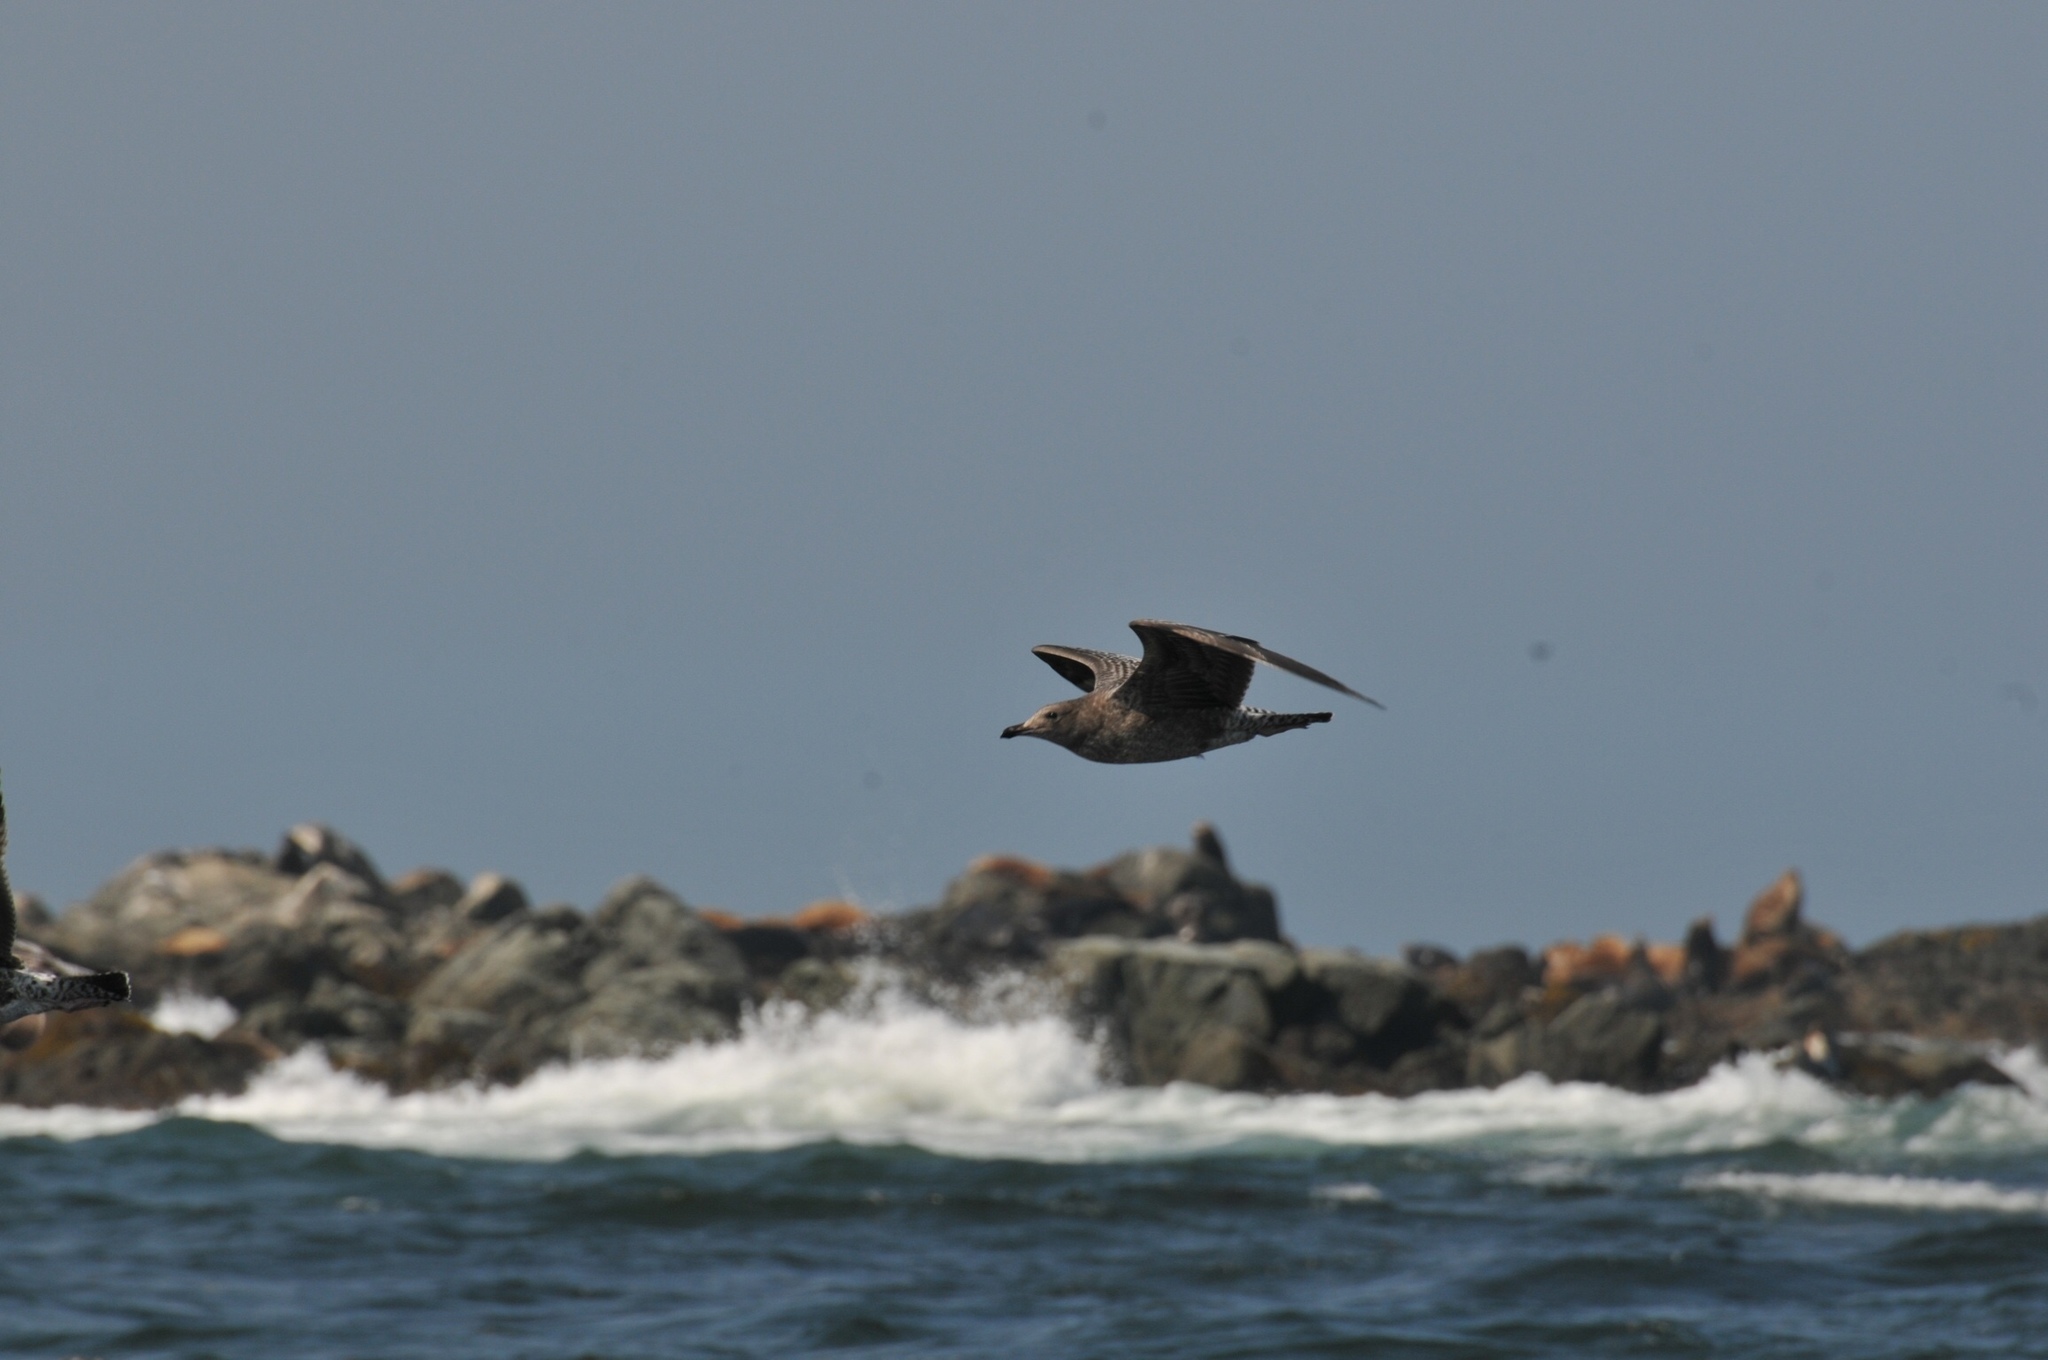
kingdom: Animalia
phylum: Chordata
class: Aves
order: Charadriiformes
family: Laridae
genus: Larus
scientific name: Larus
